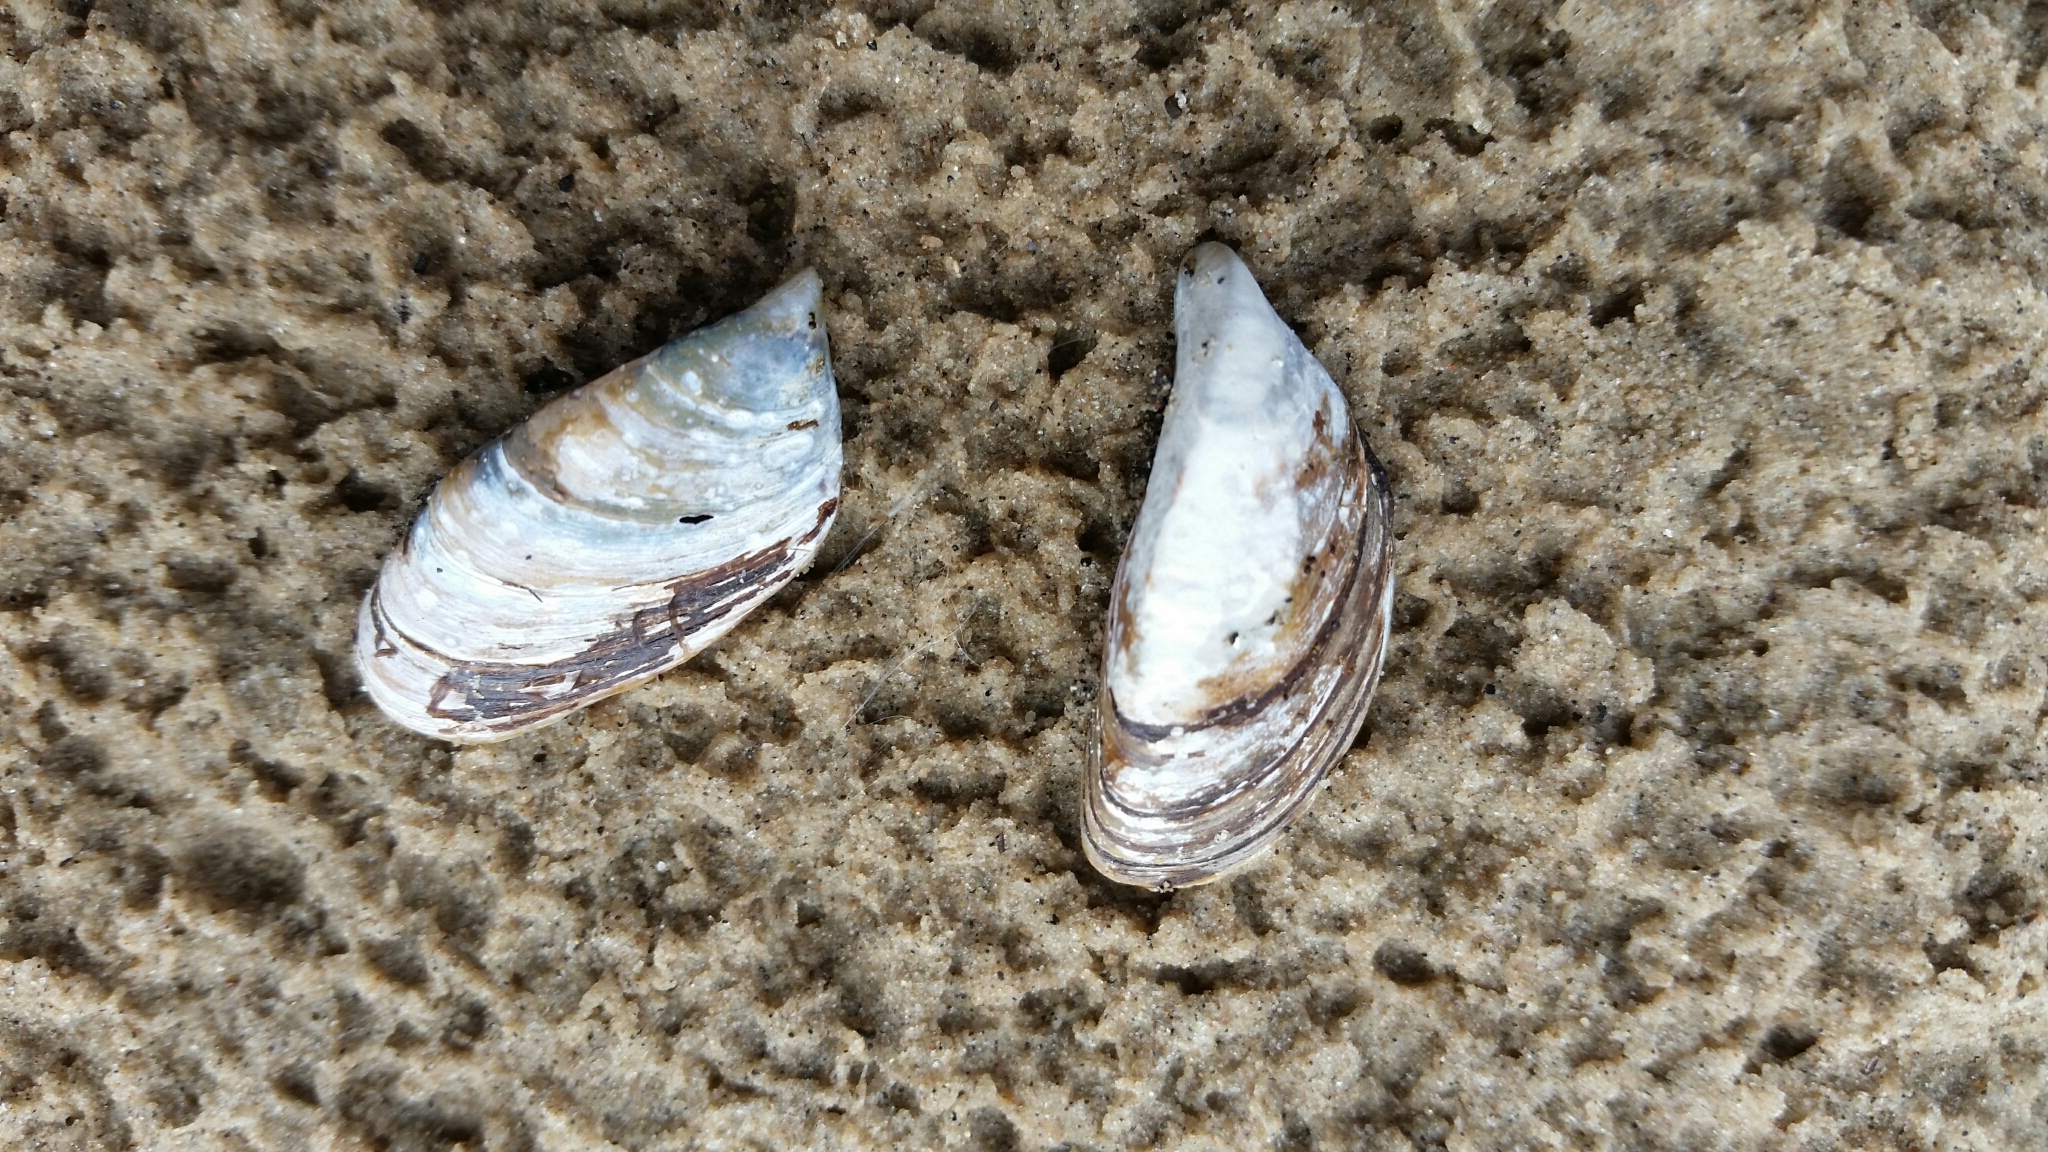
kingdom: Animalia
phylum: Mollusca
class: Bivalvia
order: Myida
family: Dreissenidae
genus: Dreissena
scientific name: Dreissena polymorpha
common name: Zebra mussel
